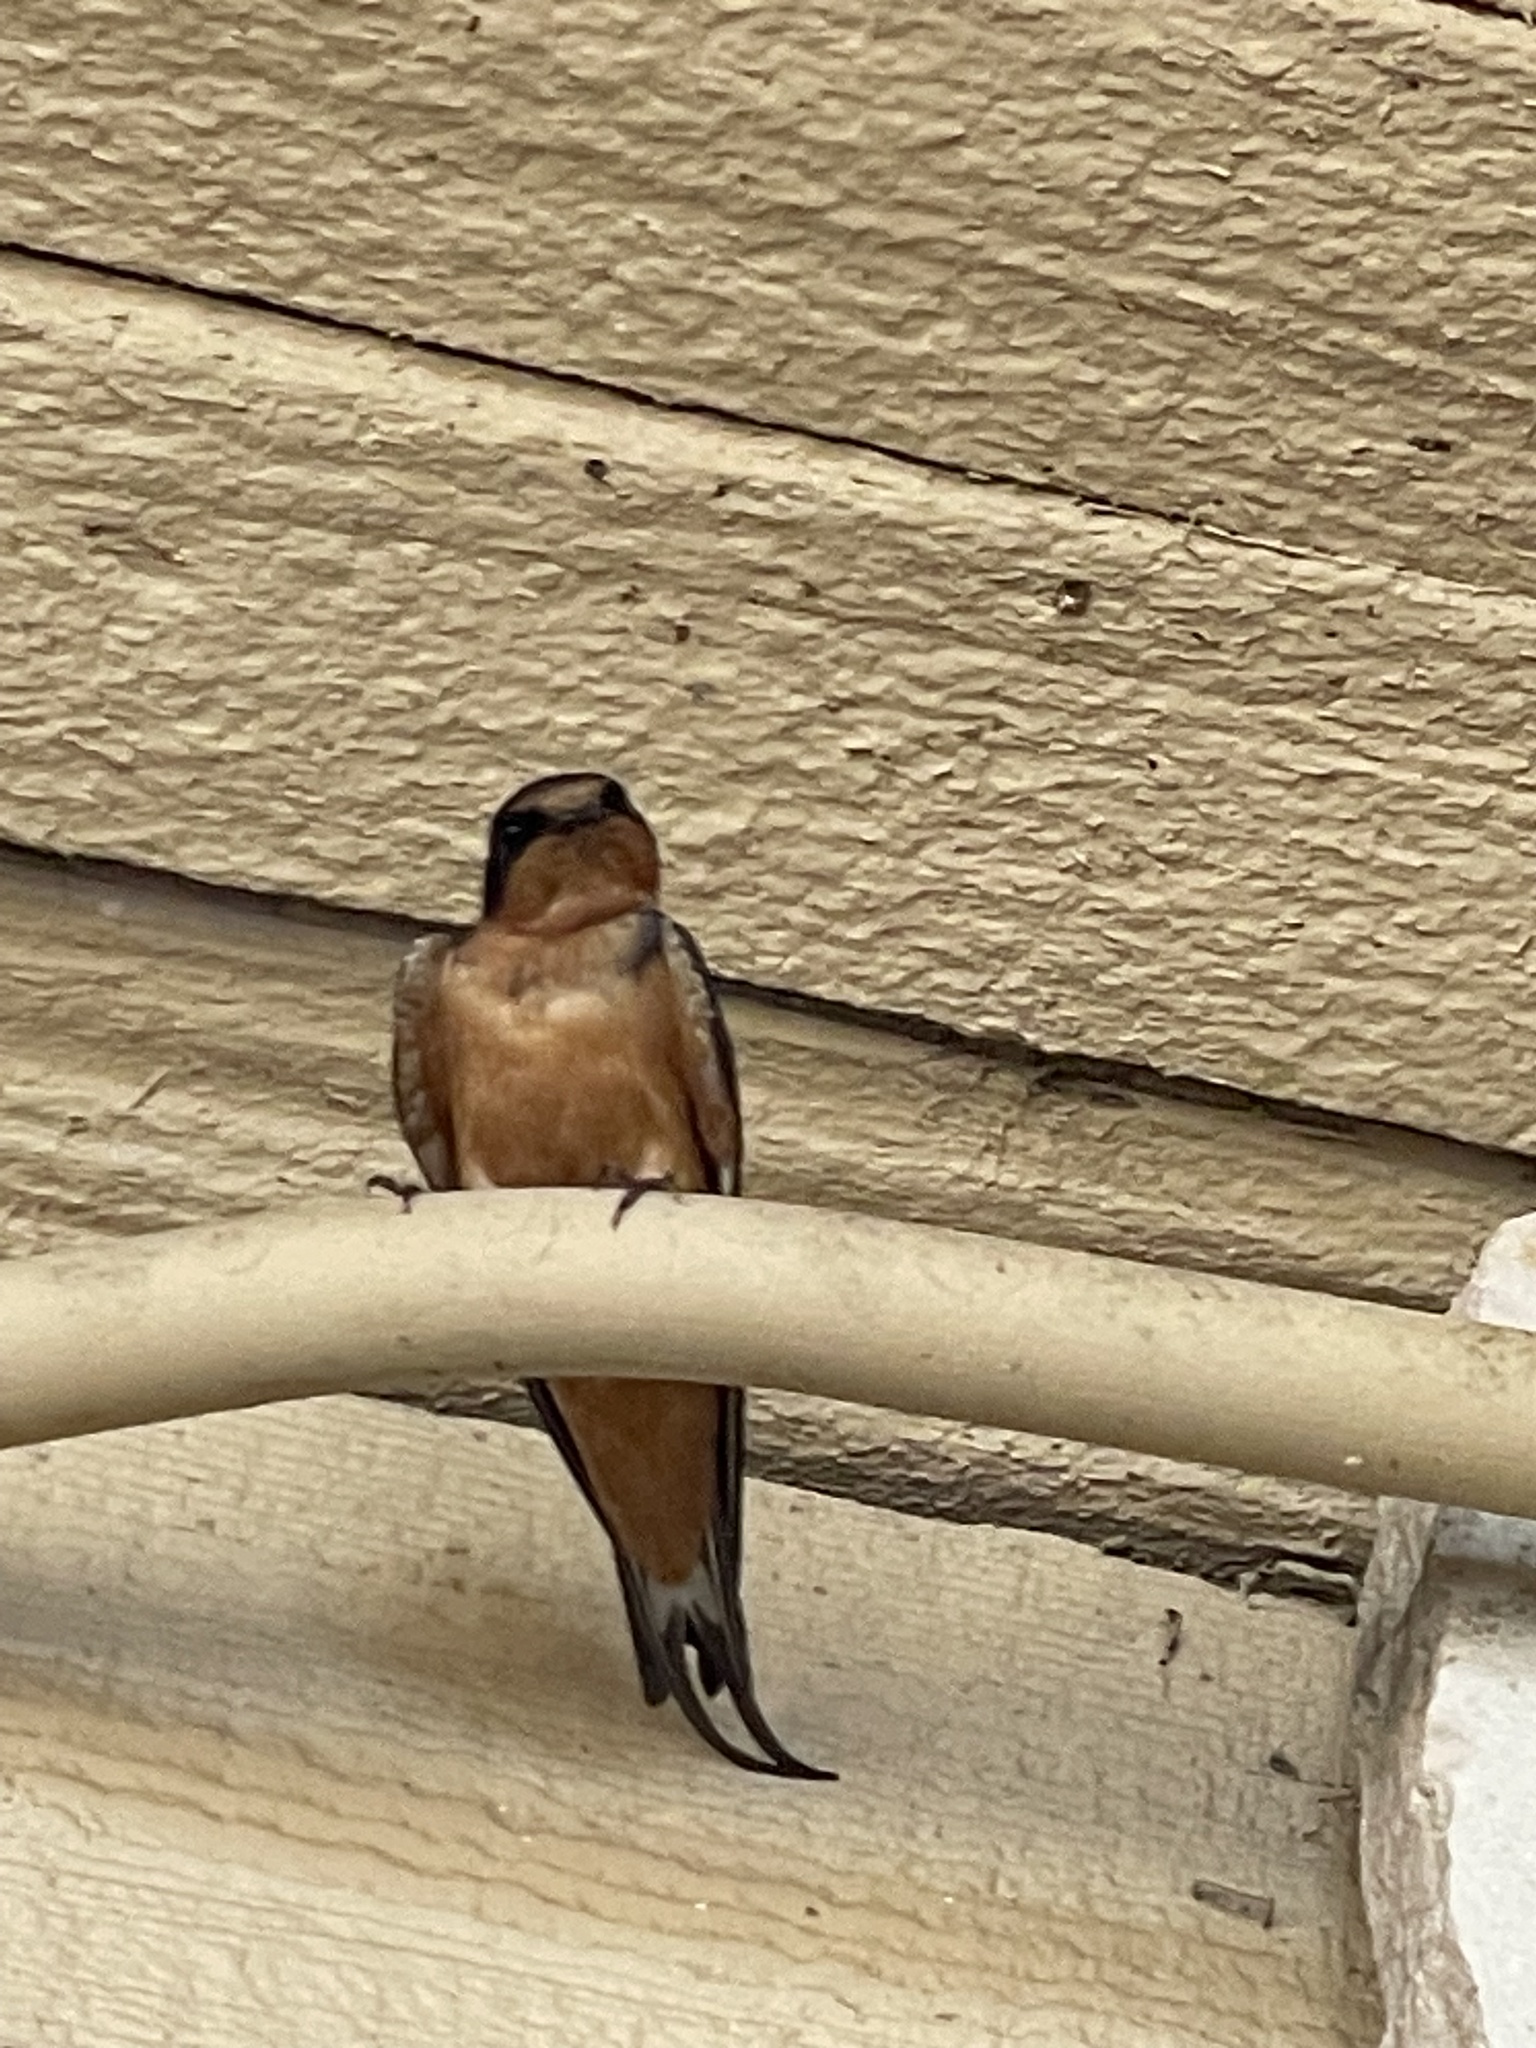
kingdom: Animalia
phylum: Chordata
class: Aves
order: Passeriformes
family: Hirundinidae
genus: Hirundo
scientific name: Hirundo rustica
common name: Barn swallow
